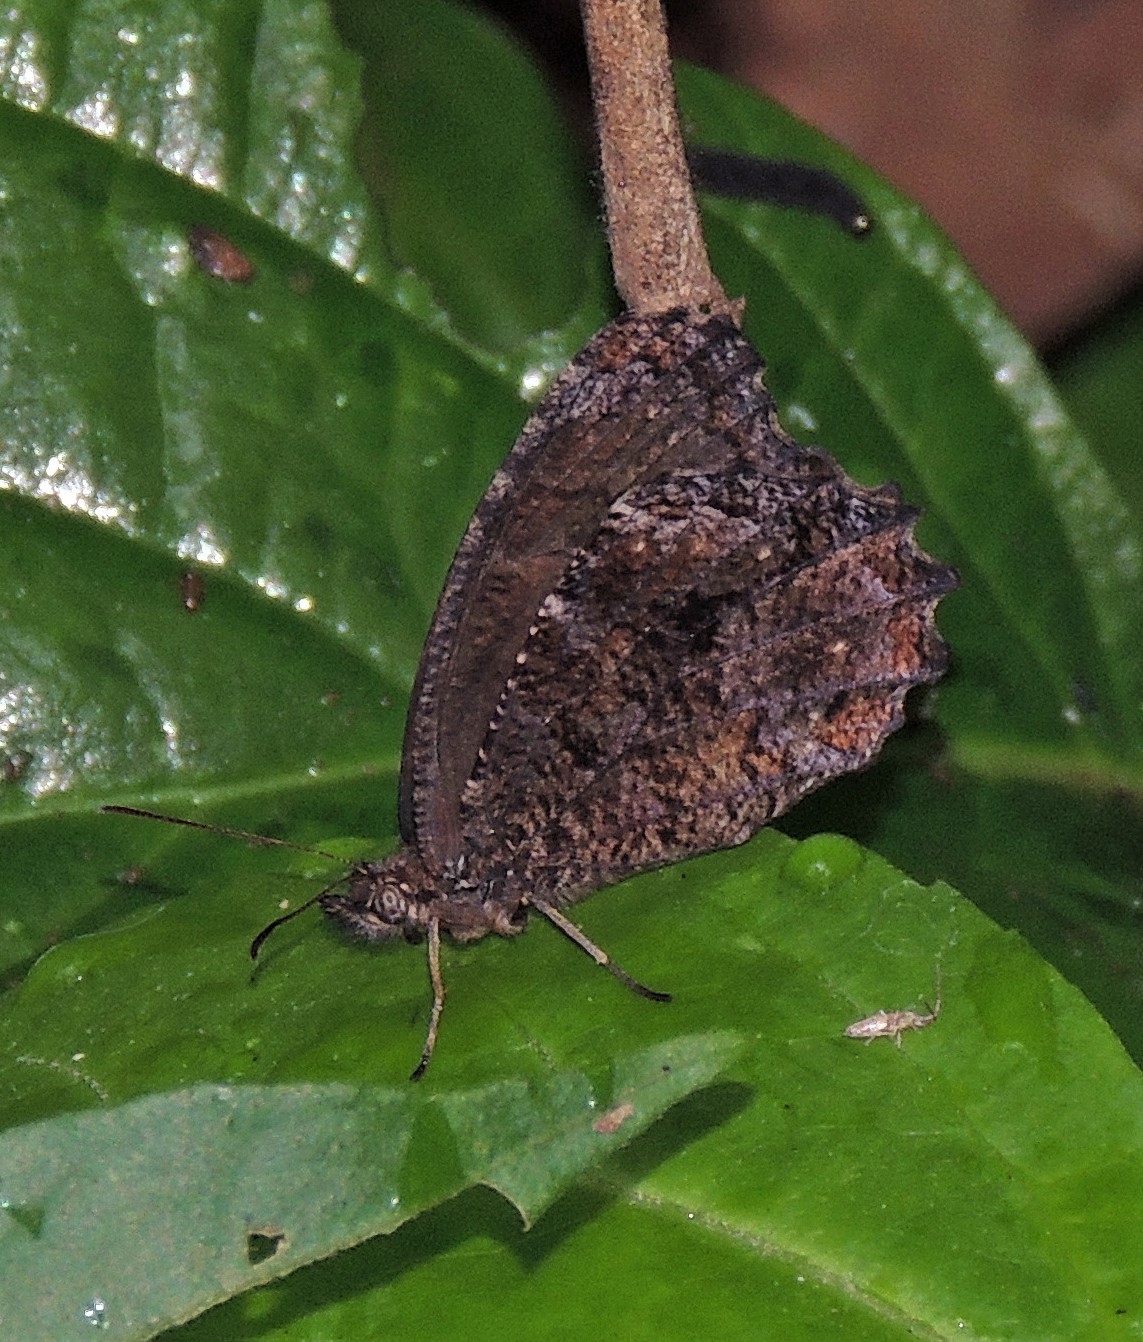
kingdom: Animalia
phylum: Arthropoda
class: Insecta
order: Lepidoptera
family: Nymphalidae
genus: Praepedaliodes
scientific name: Praepedaliodes phanias
